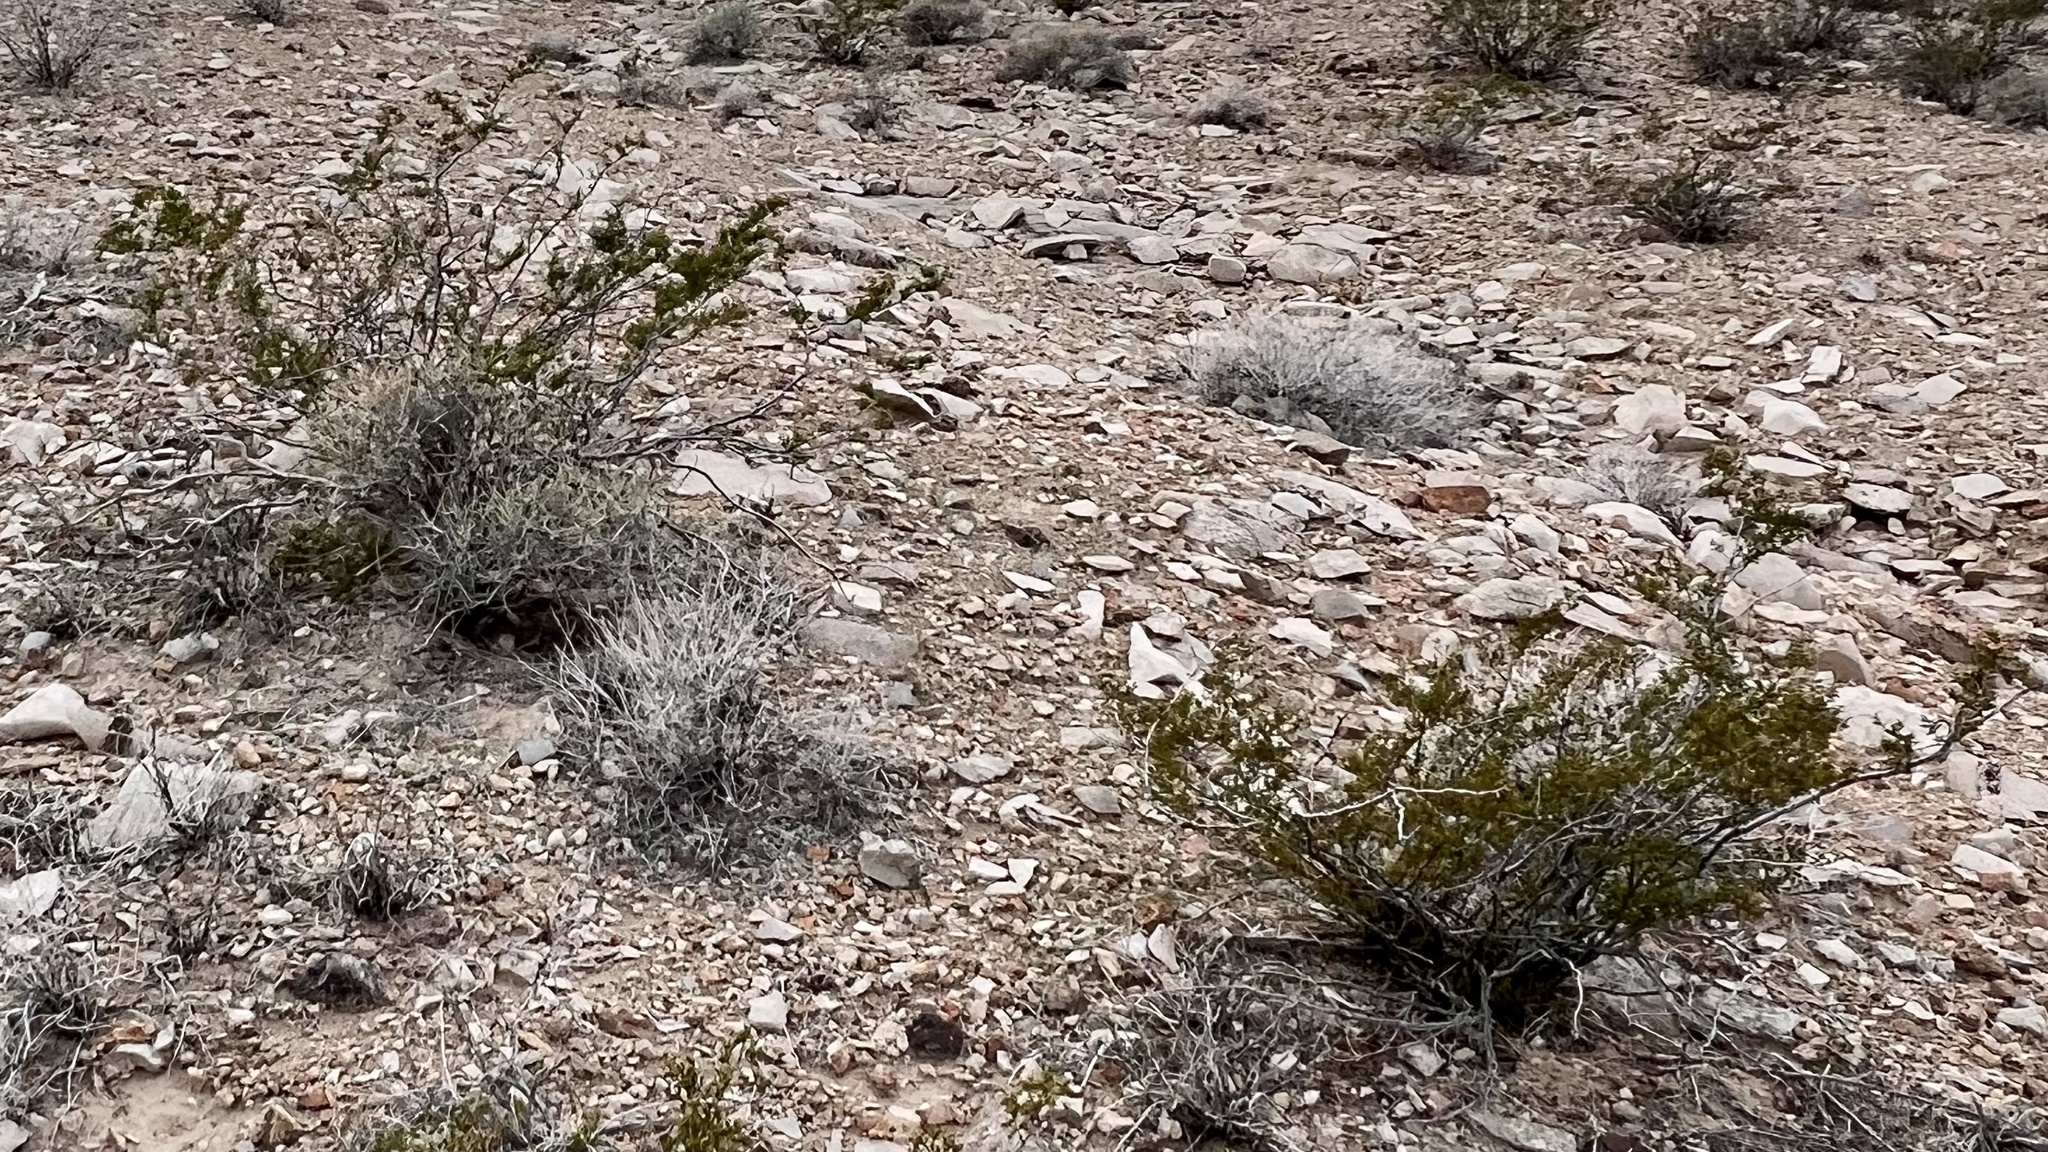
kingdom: Plantae
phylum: Tracheophyta
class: Magnoliopsida
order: Zygophyllales
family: Zygophyllaceae
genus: Larrea
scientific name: Larrea tridentata
